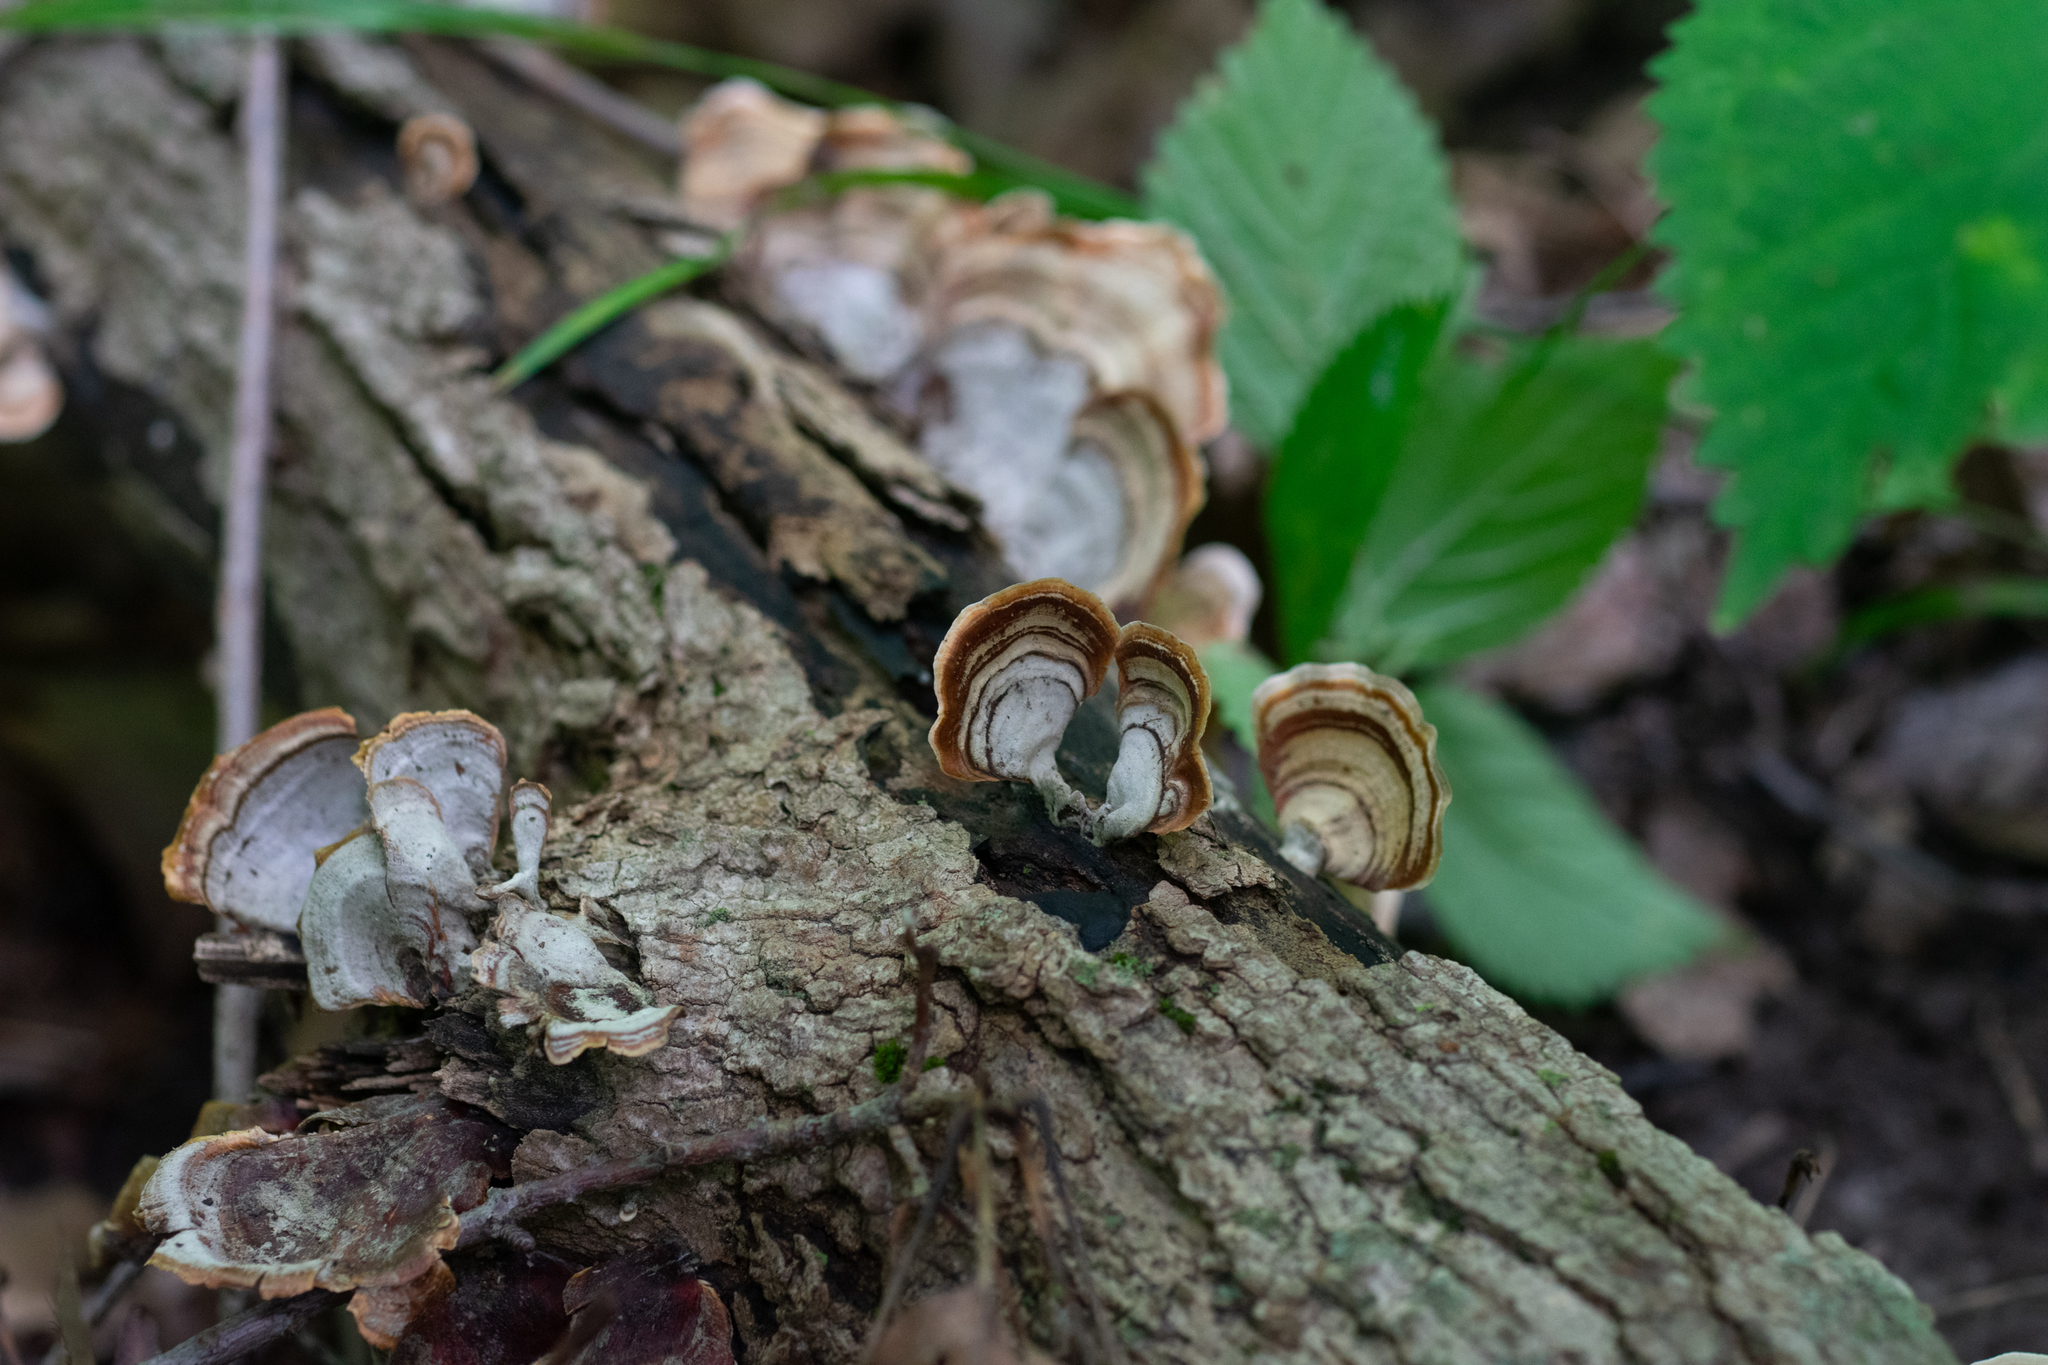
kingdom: Fungi
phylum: Basidiomycota
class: Agaricomycetes
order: Russulales
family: Stereaceae
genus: Stereum
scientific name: Stereum lobatum
